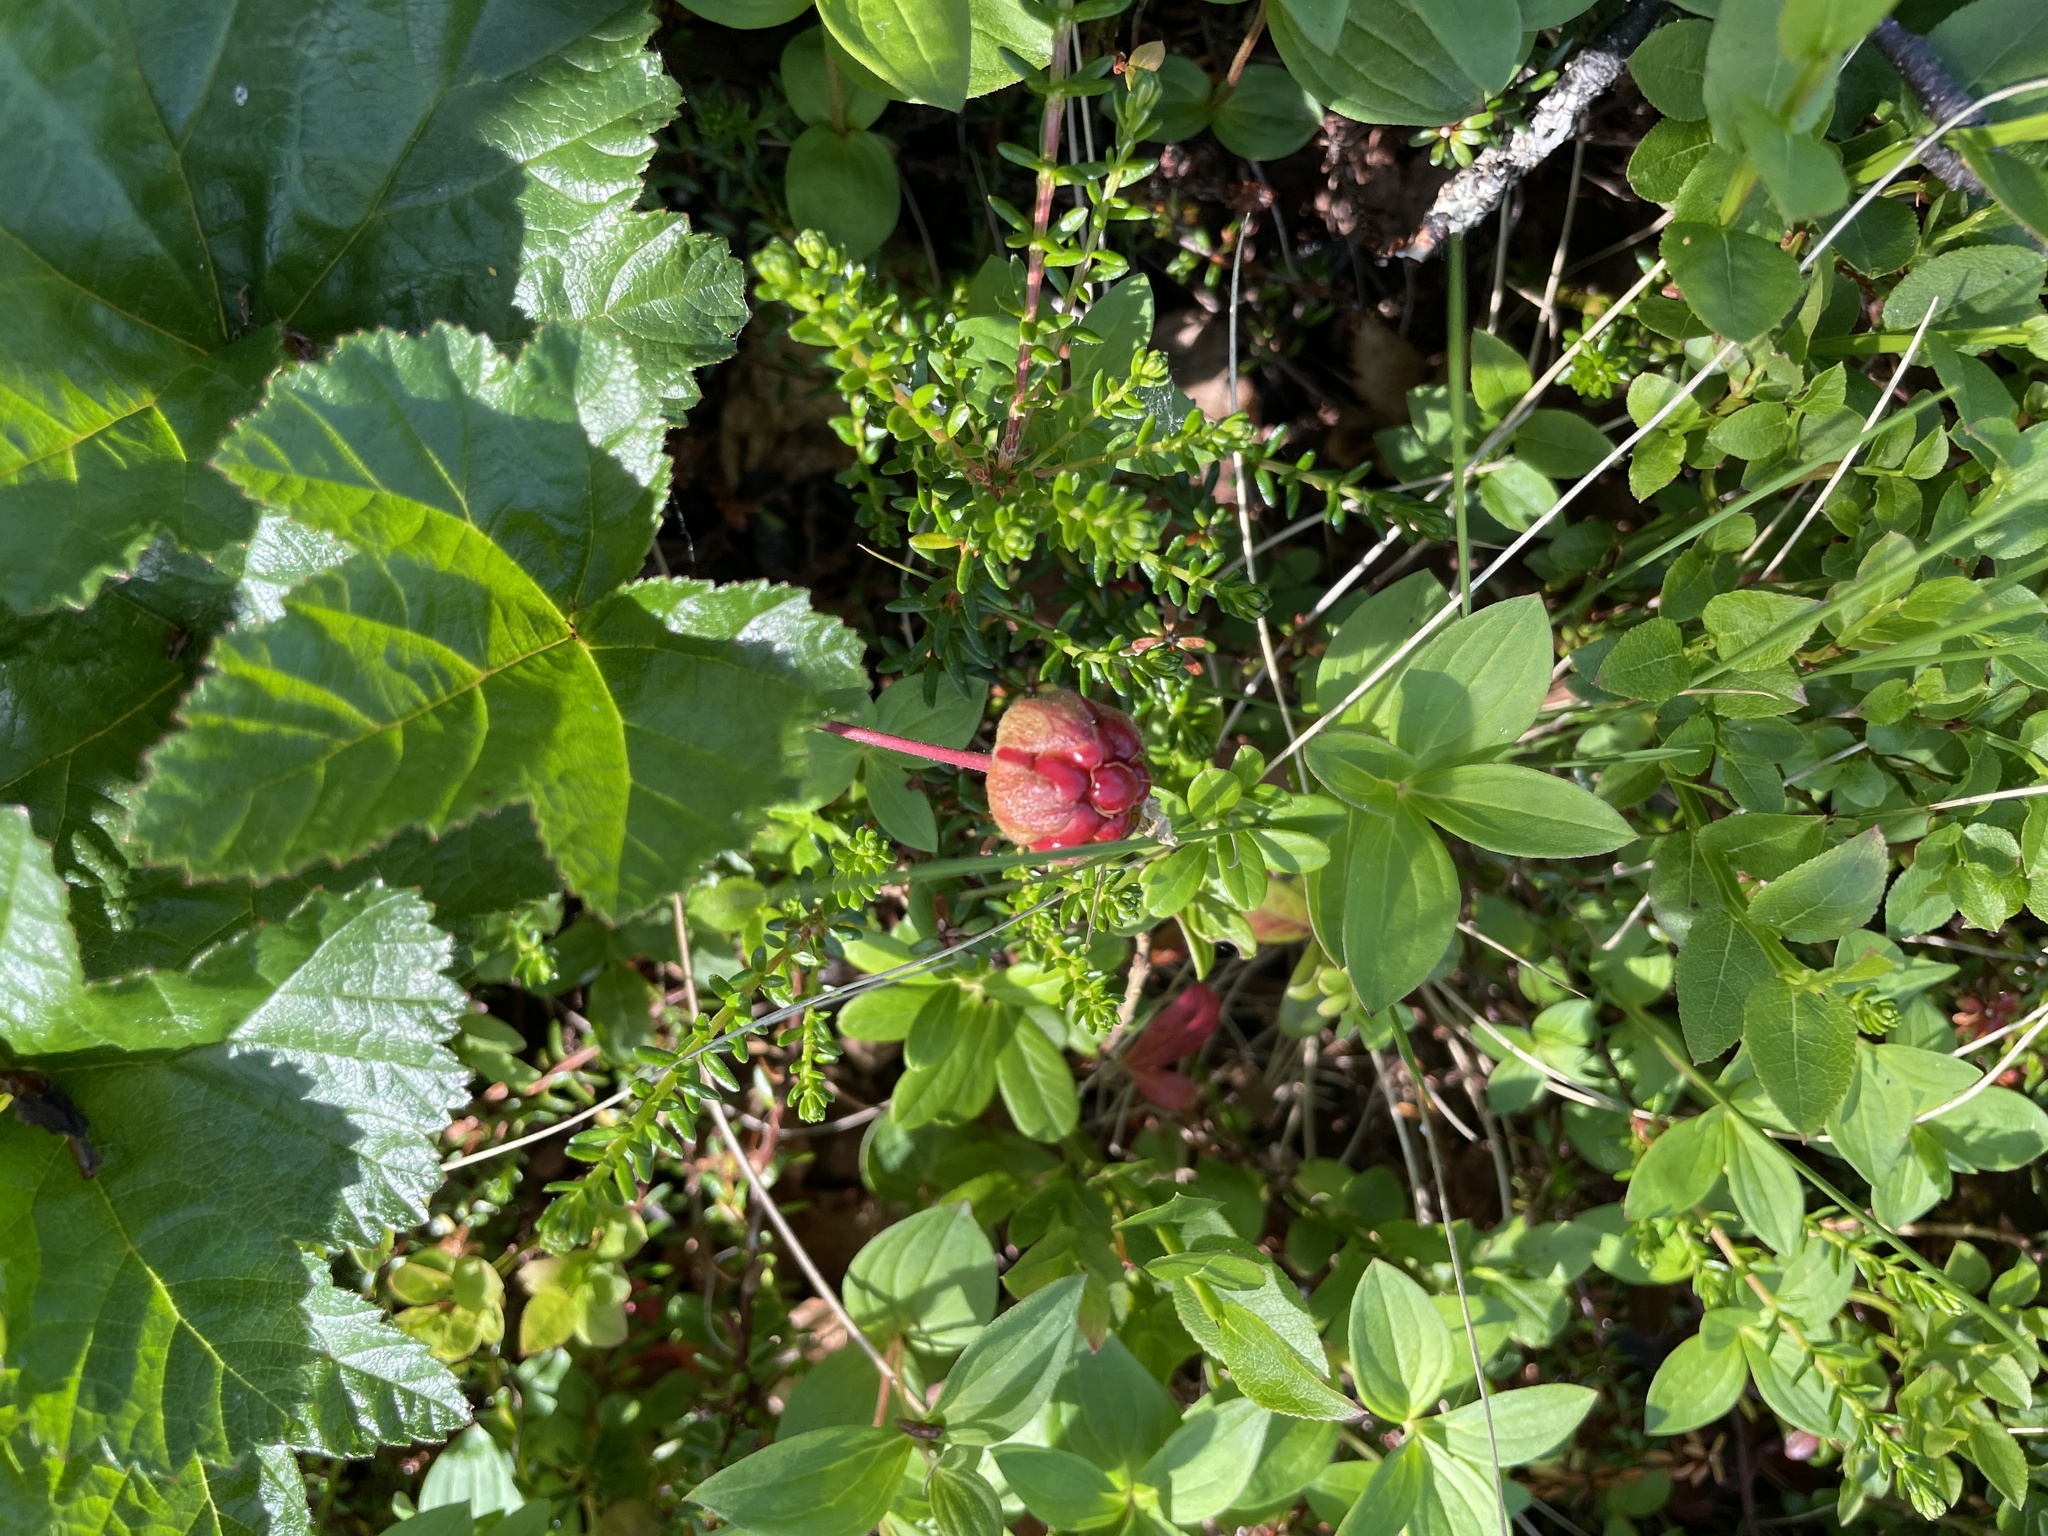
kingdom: Plantae
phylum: Tracheophyta
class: Magnoliopsida
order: Rosales
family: Rosaceae
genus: Rubus
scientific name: Rubus chamaemorus
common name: Cloudberry
